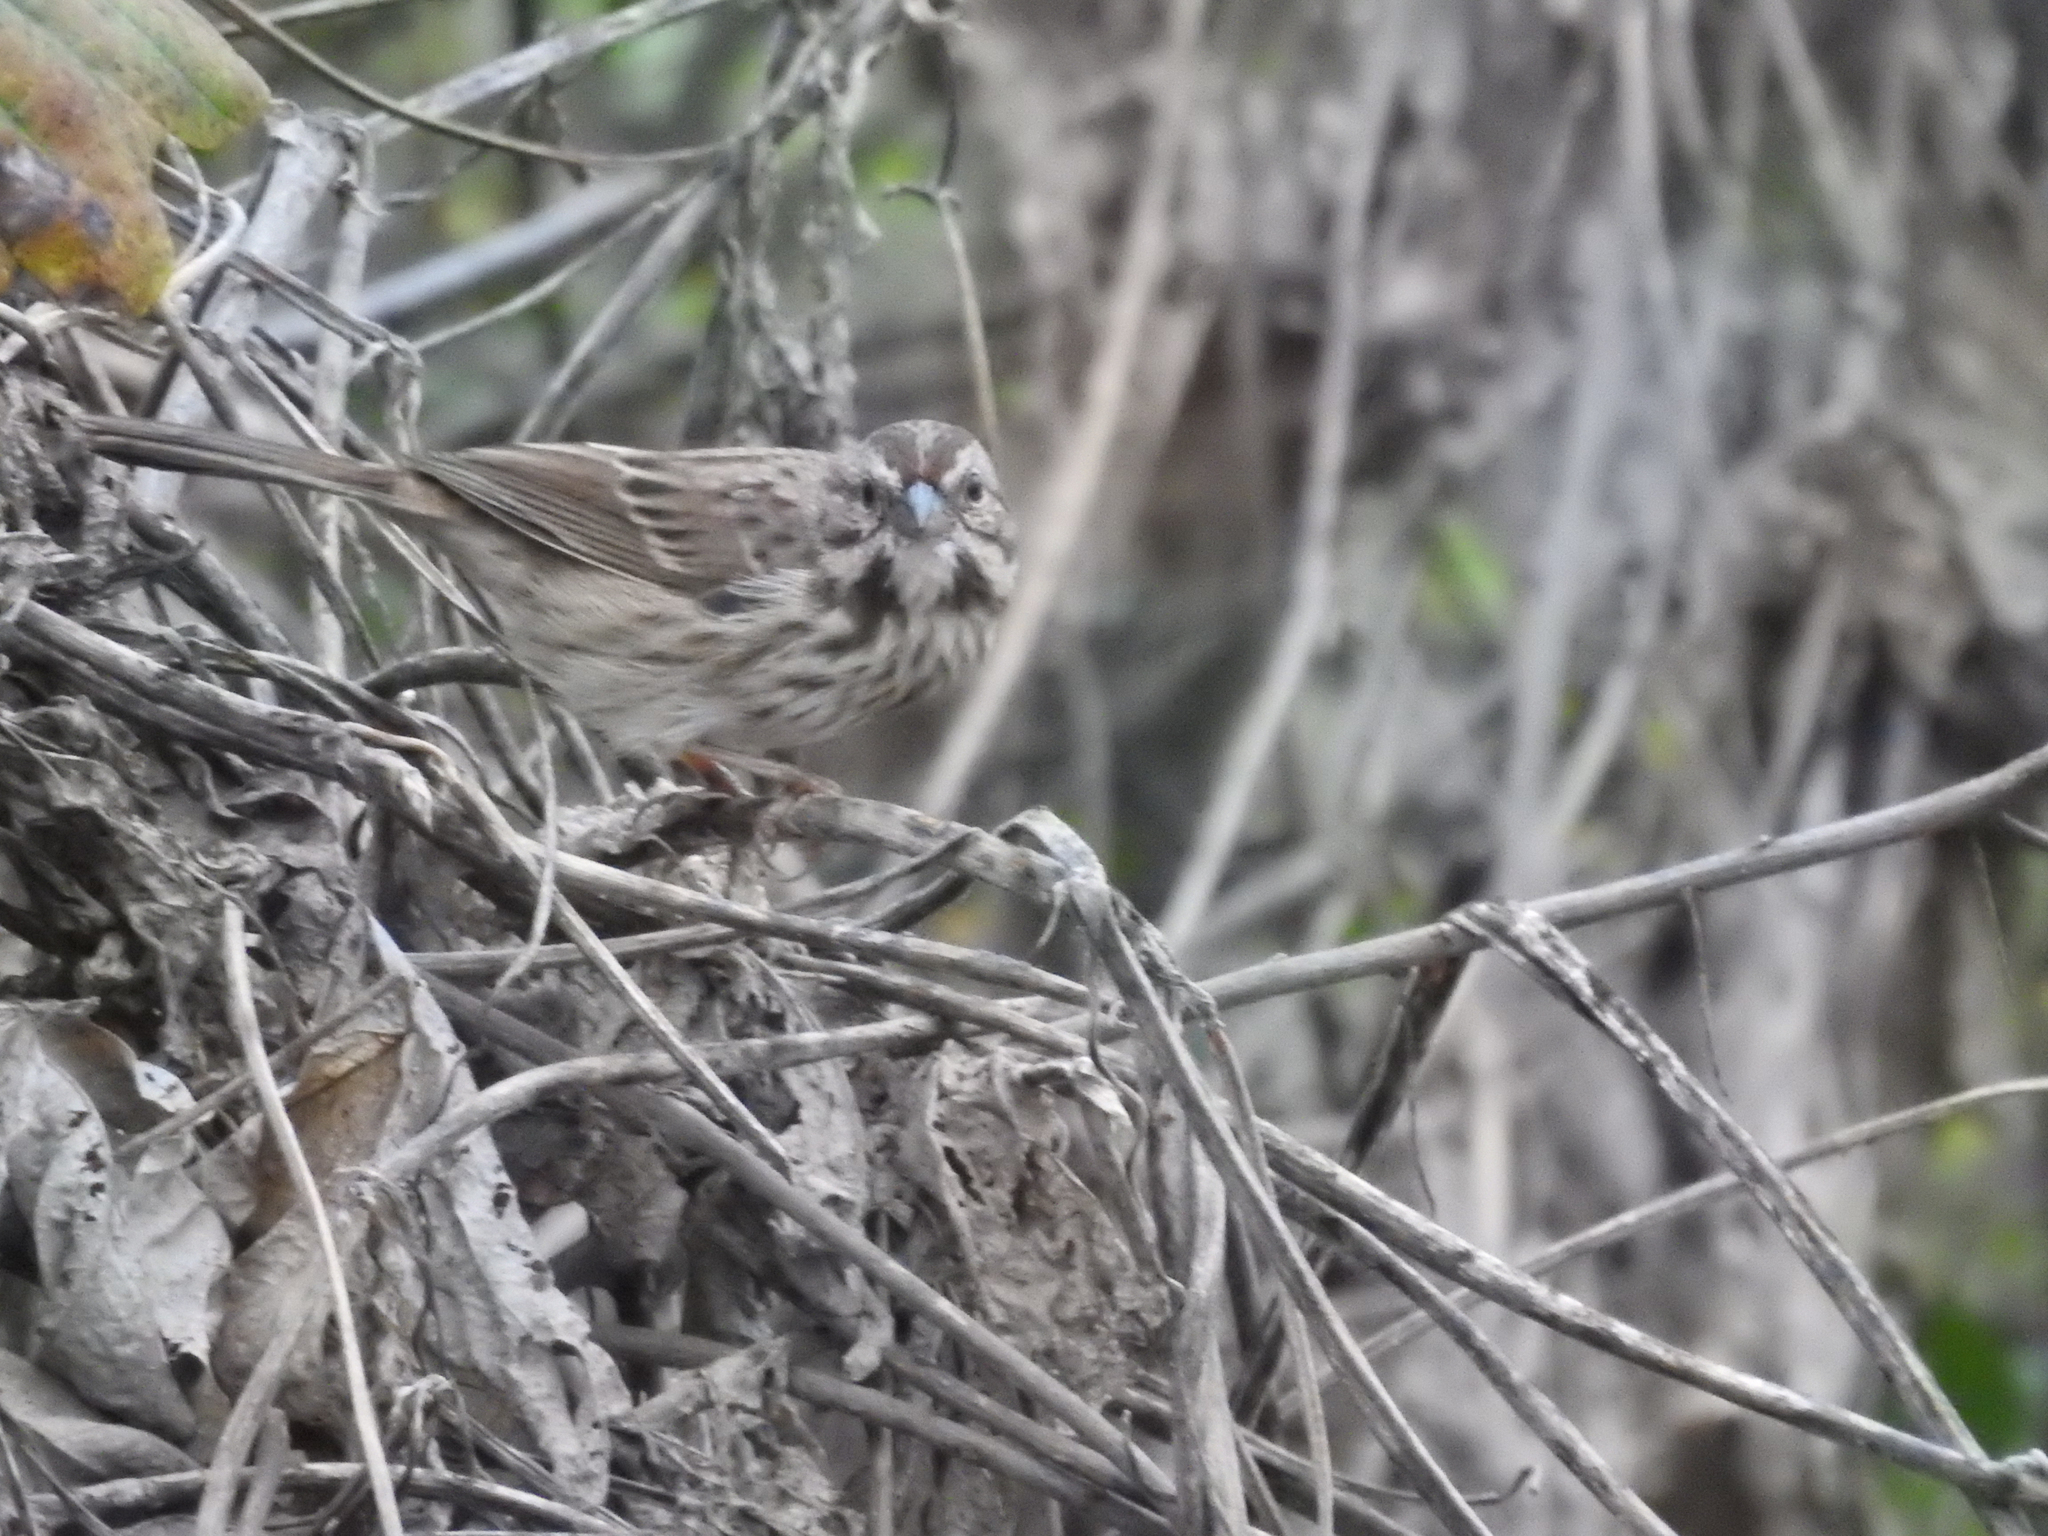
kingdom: Animalia
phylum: Chordata
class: Aves
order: Passeriformes
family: Passerellidae
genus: Melospiza
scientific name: Melospiza melodia
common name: Song sparrow
